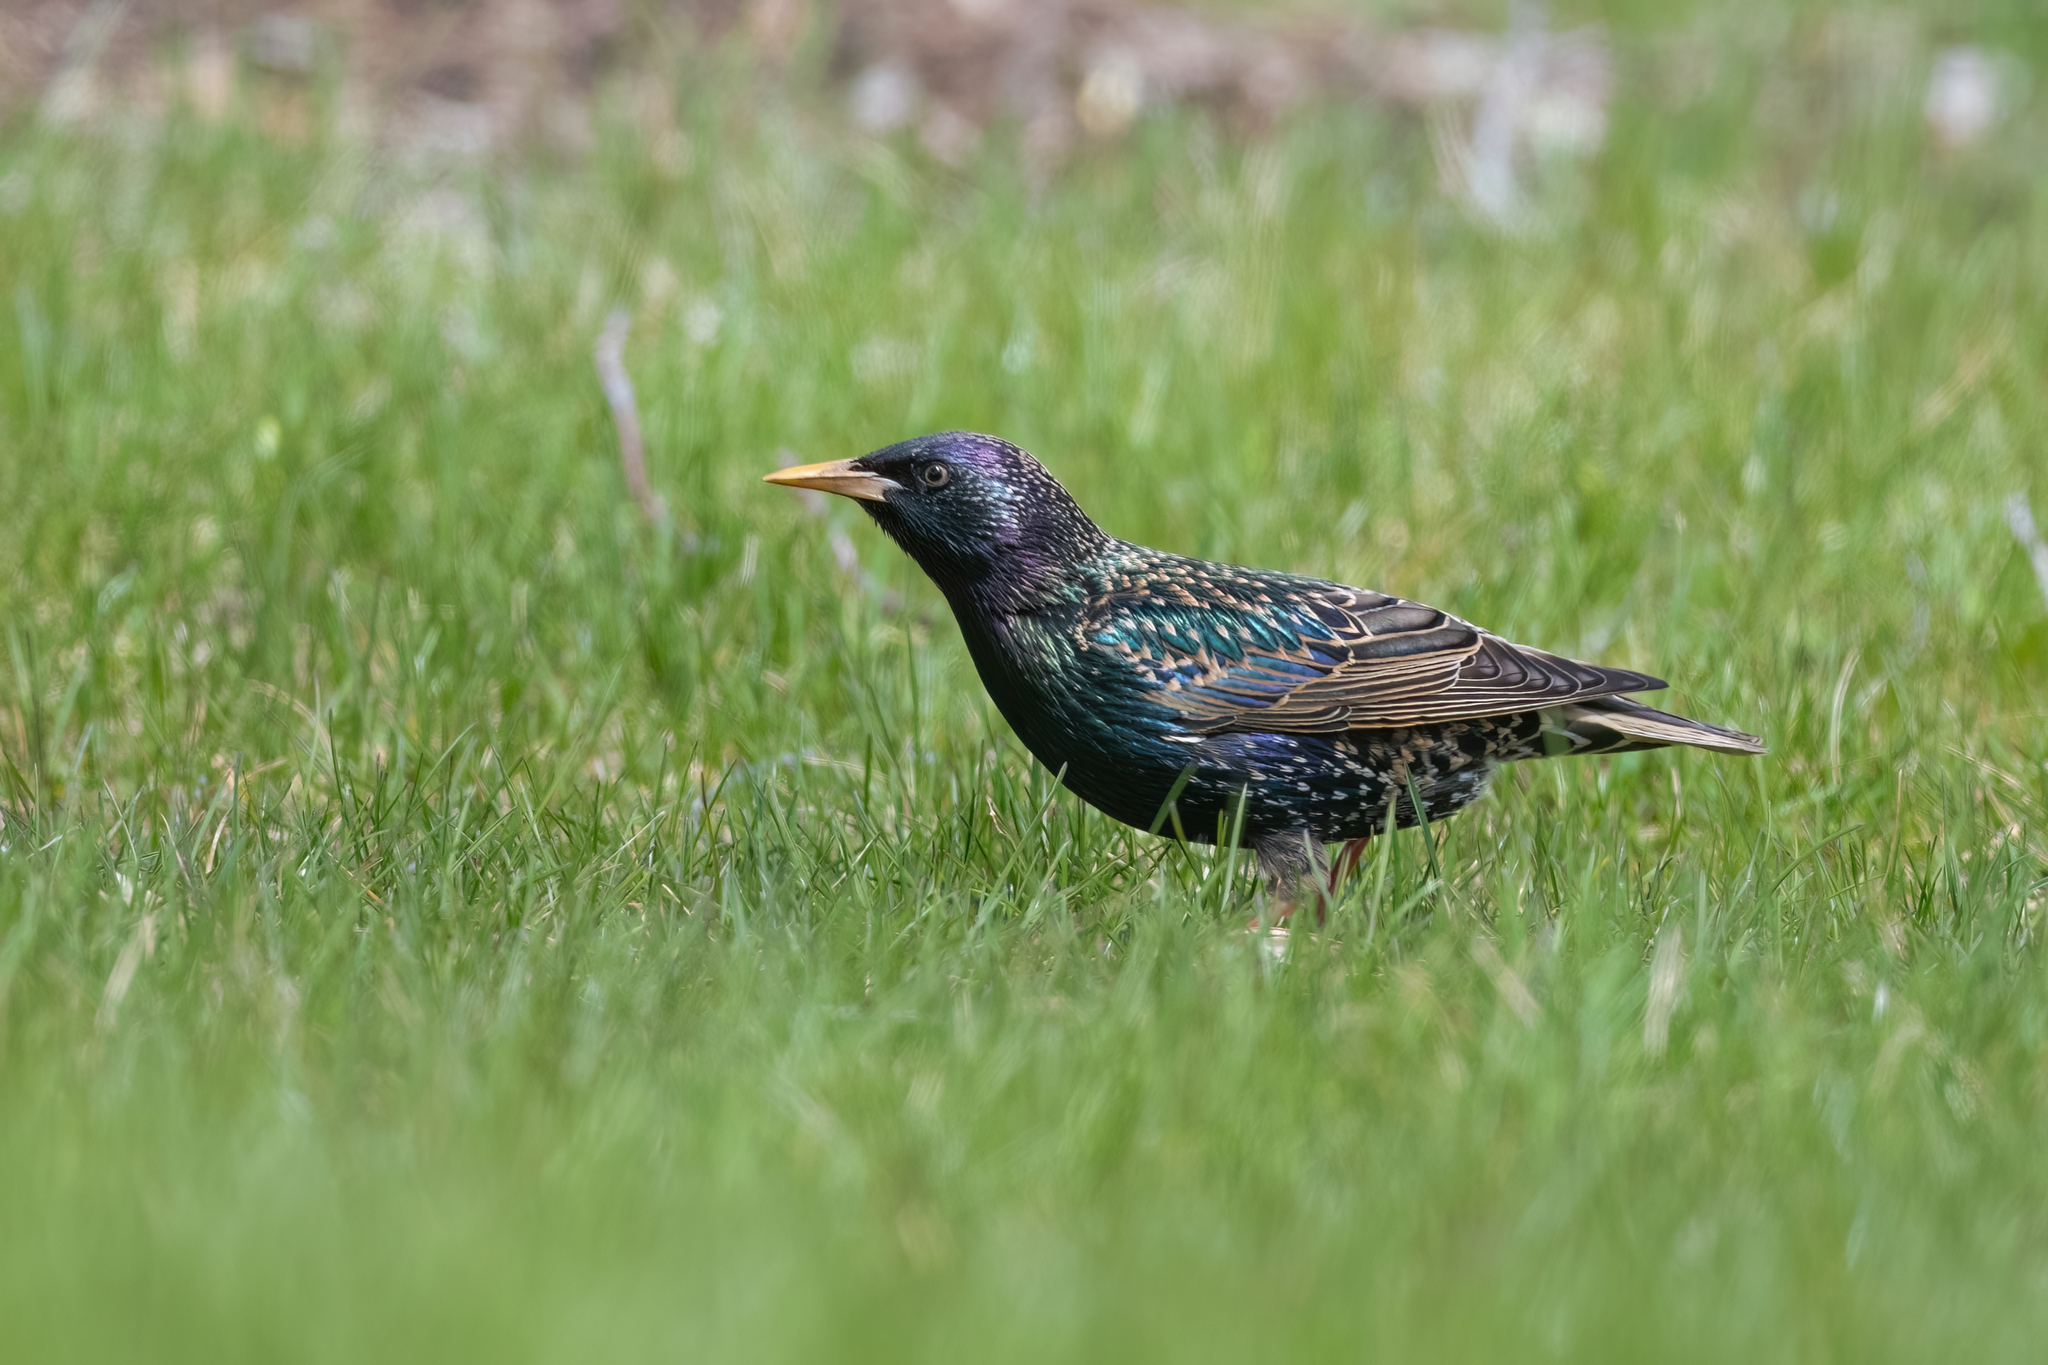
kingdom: Animalia
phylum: Chordata
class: Aves
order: Passeriformes
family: Sturnidae
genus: Sturnus
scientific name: Sturnus vulgaris
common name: Common starling
